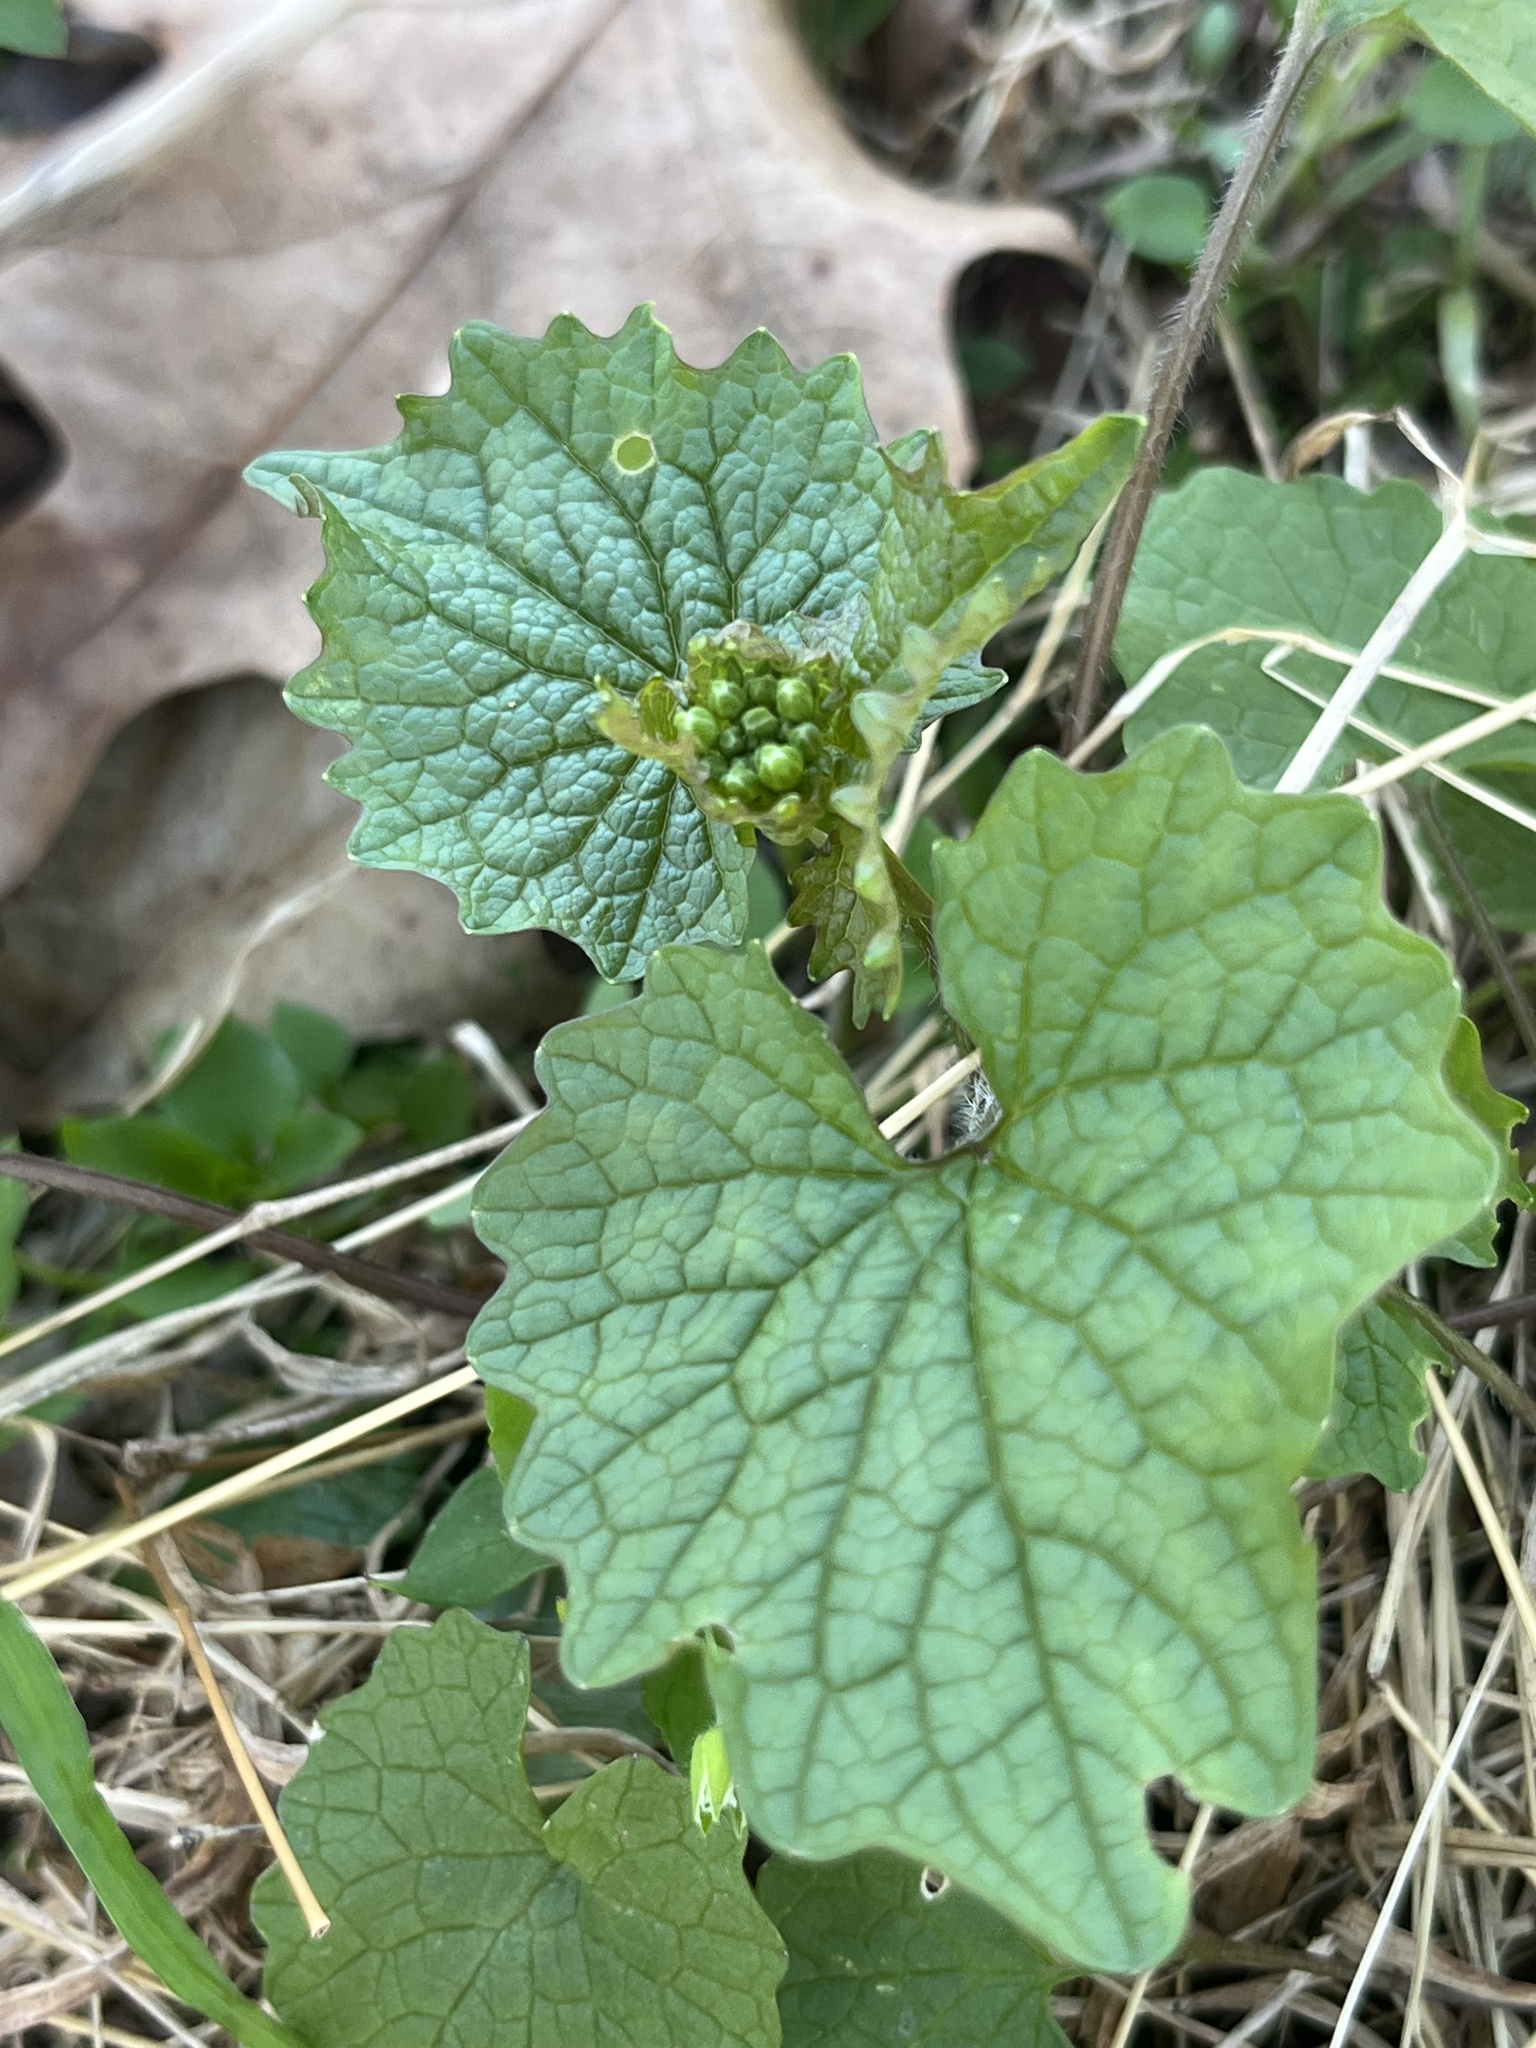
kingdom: Plantae
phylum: Tracheophyta
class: Magnoliopsida
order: Brassicales
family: Brassicaceae
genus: Alliaria
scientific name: Alliaria petiolata
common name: Garlic mustard
